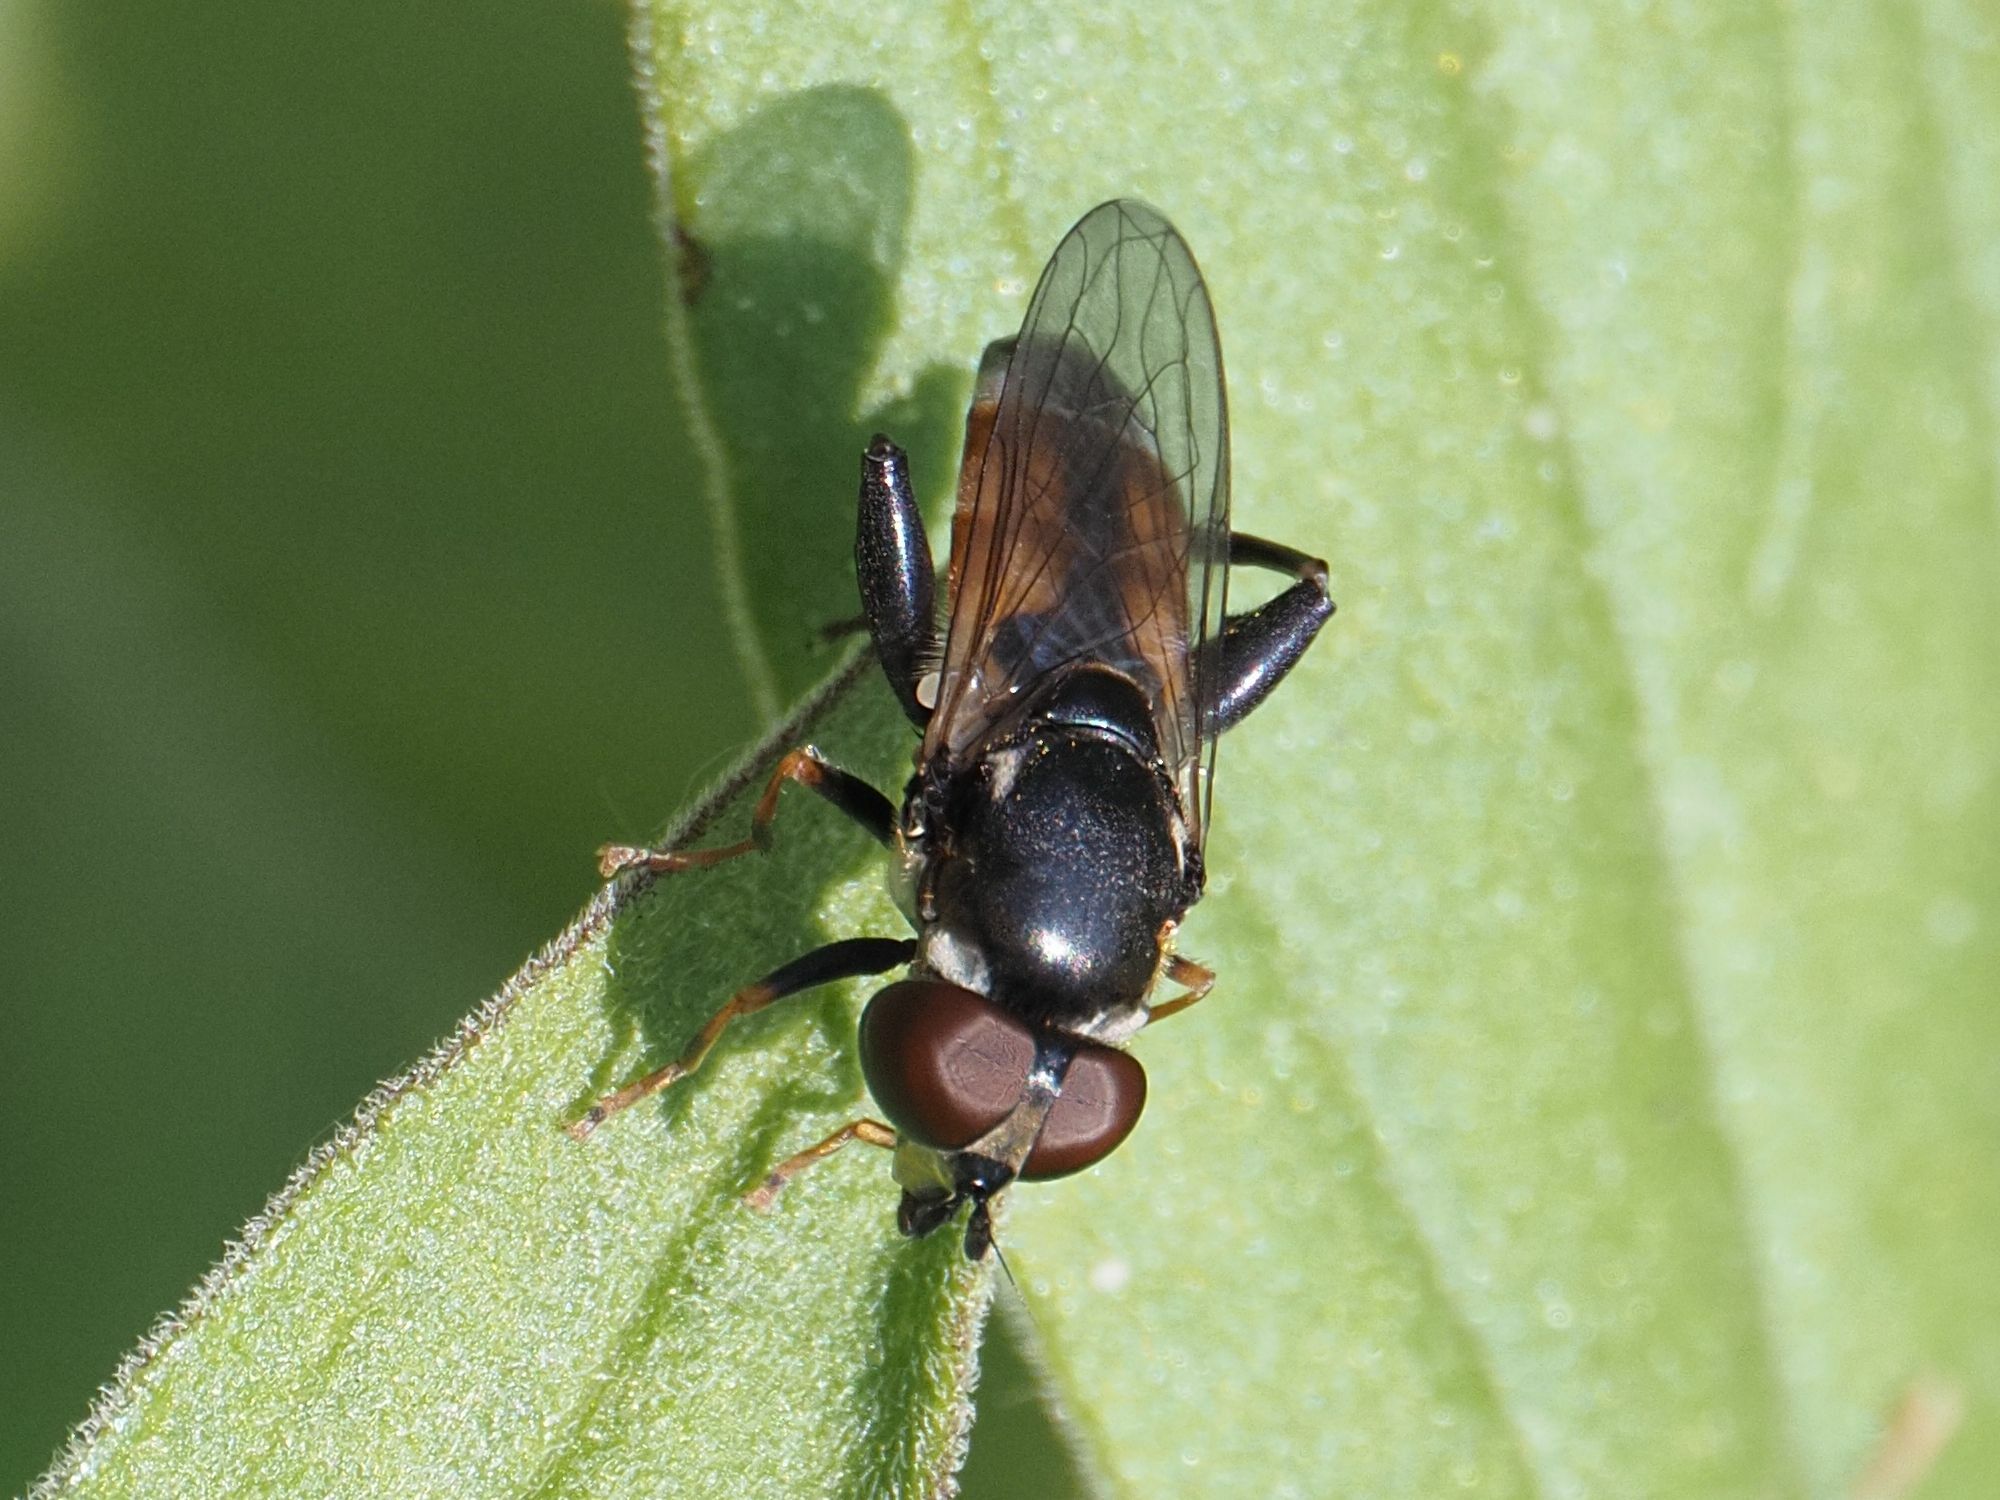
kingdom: Animalia
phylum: Arthropoda
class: Insecta
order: Diptera
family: Syrphidae
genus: Tropidia
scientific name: Tropidia scita
